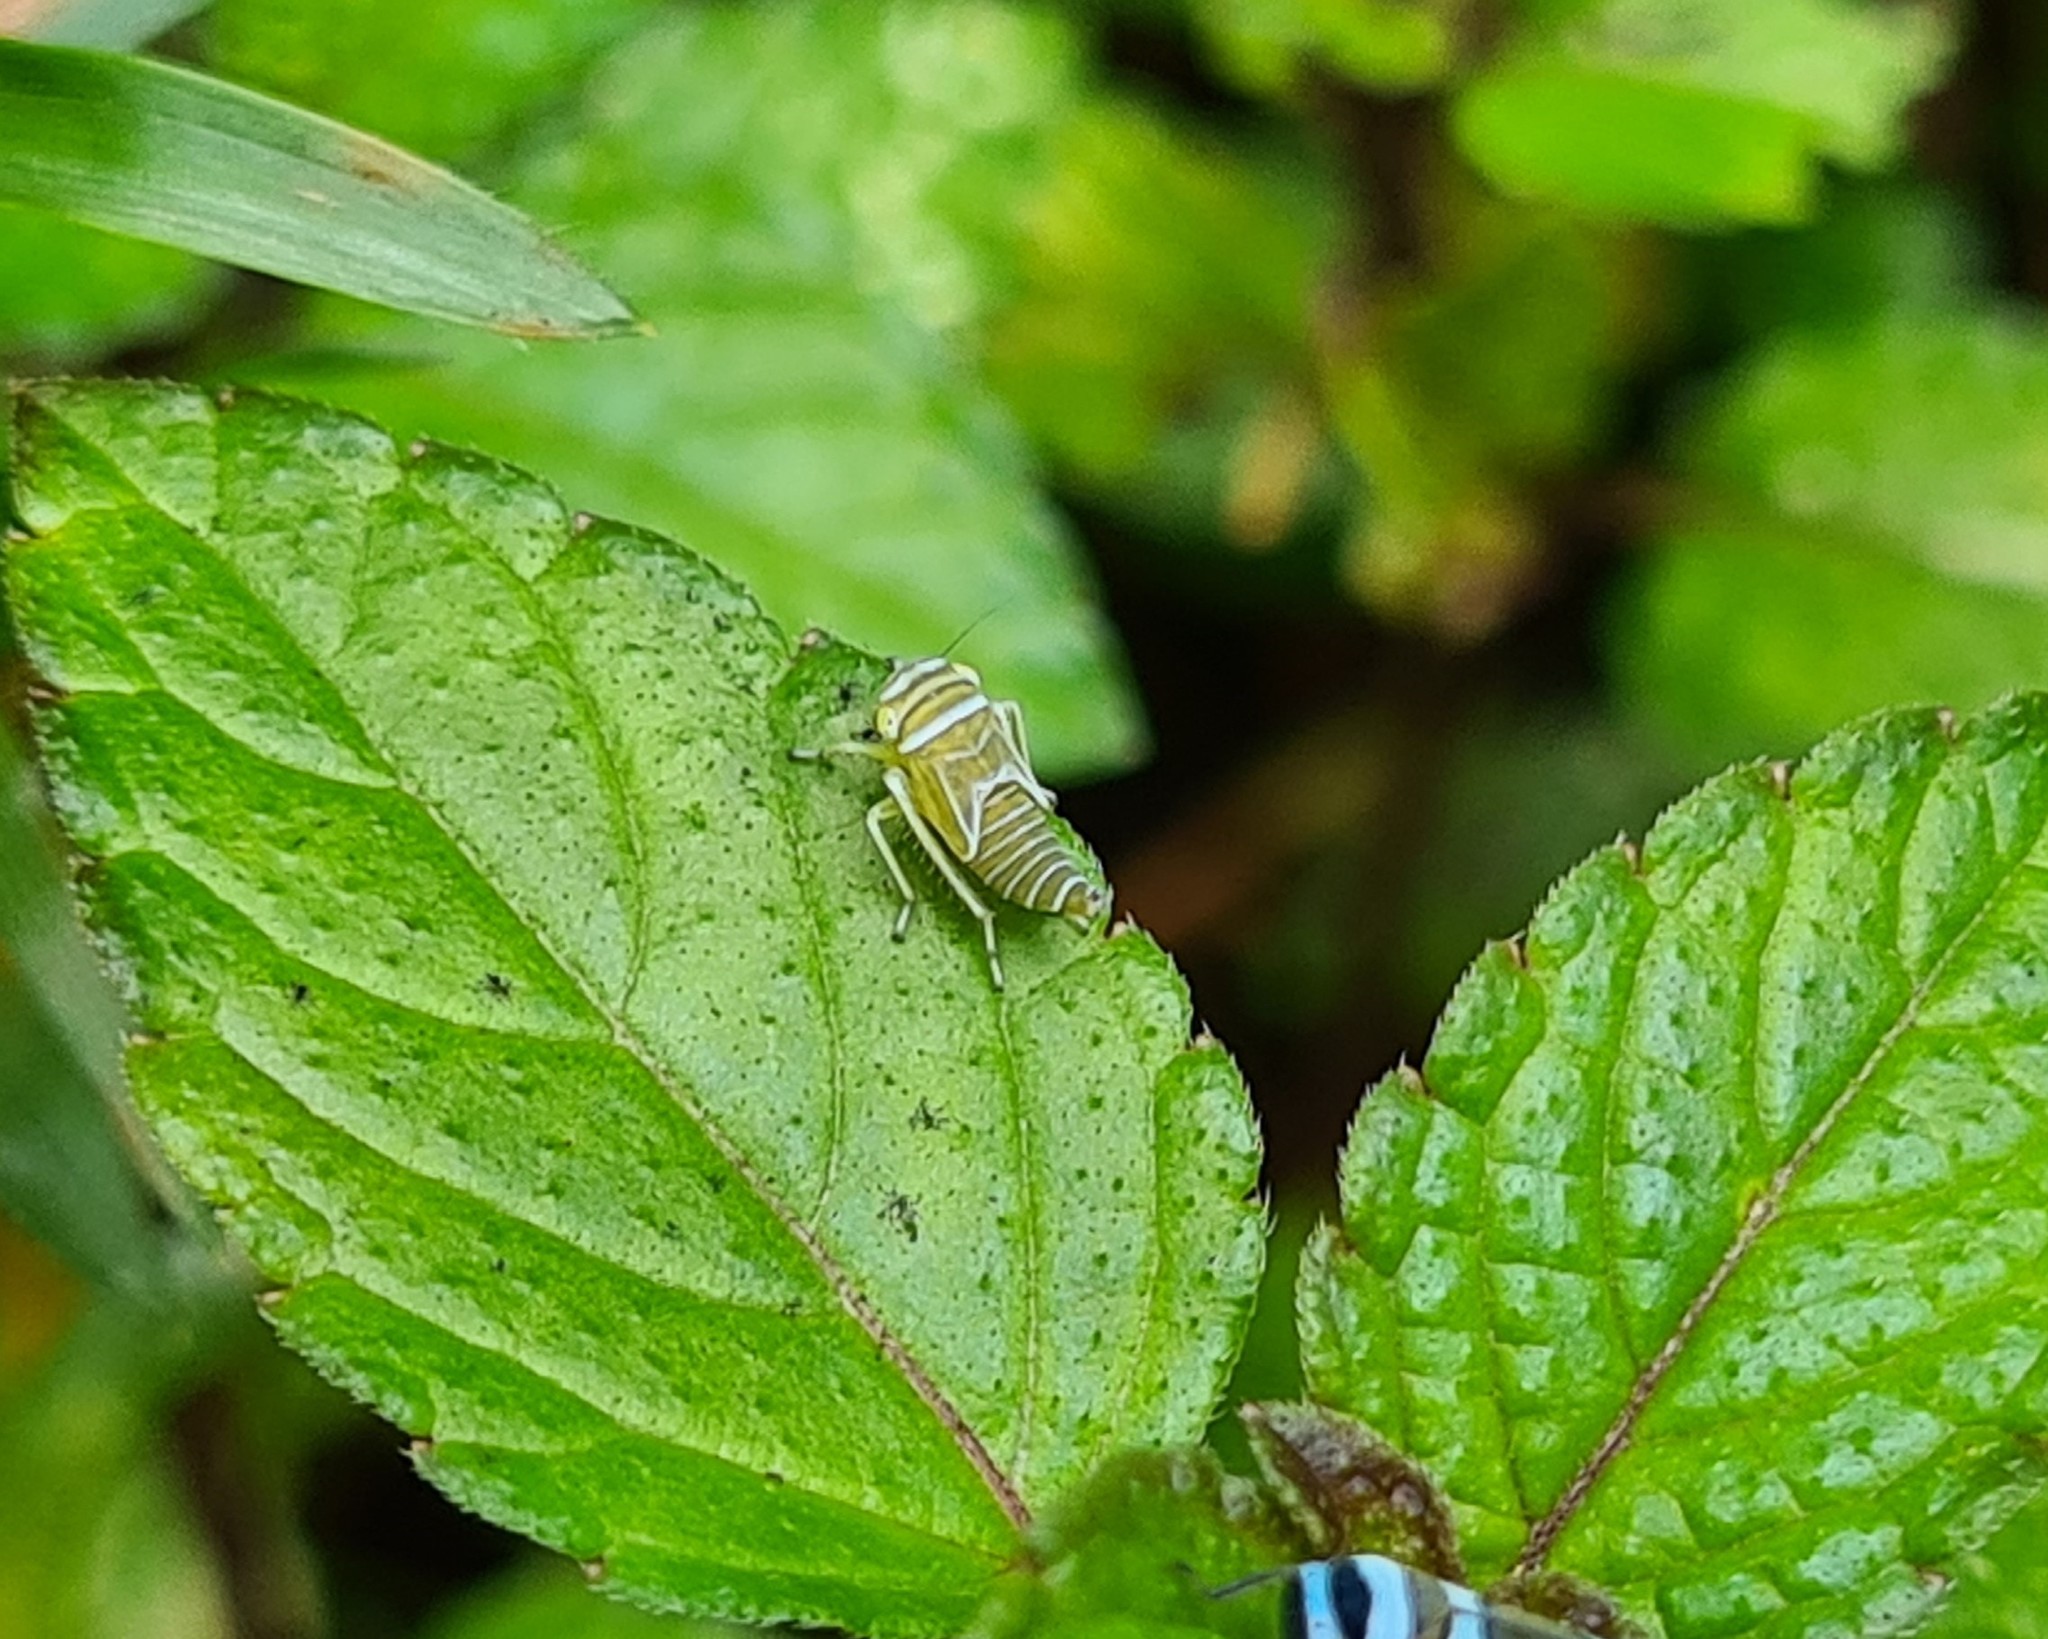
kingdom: Animalia
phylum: Arthropoda
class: Insecta
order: Hemiptera
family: Cicadellidae
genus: Macugonalia
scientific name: Macugonalia moesta
